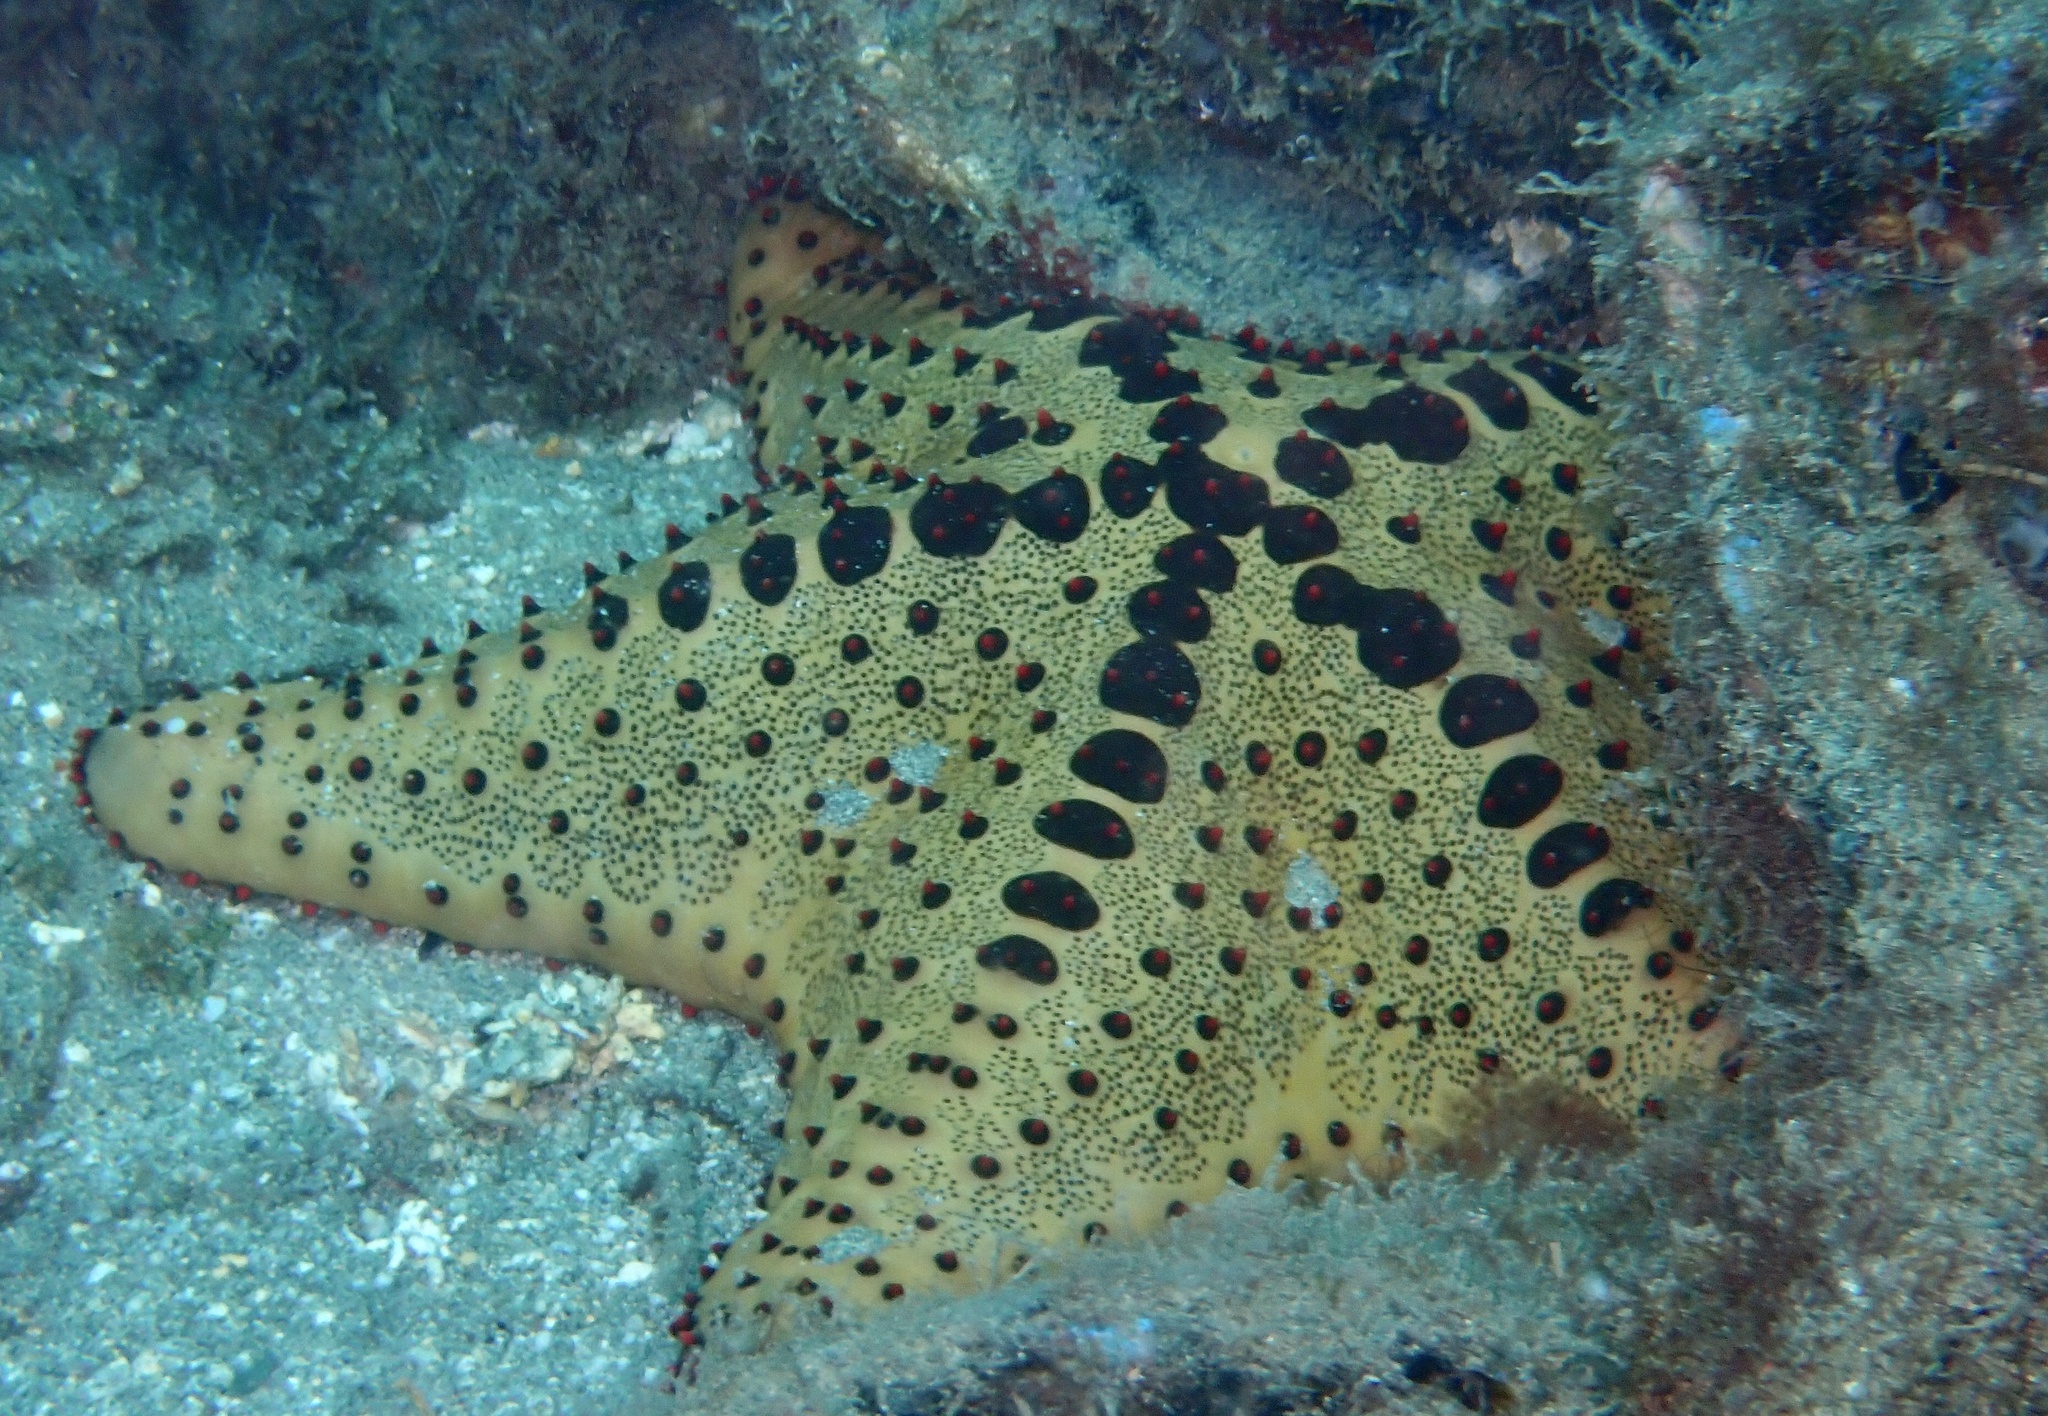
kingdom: Animalia
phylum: Echinodermata
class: Asteroidea
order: Valvatida
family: Oreasteridae
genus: Oreaster
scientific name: Oreaster clavatus
